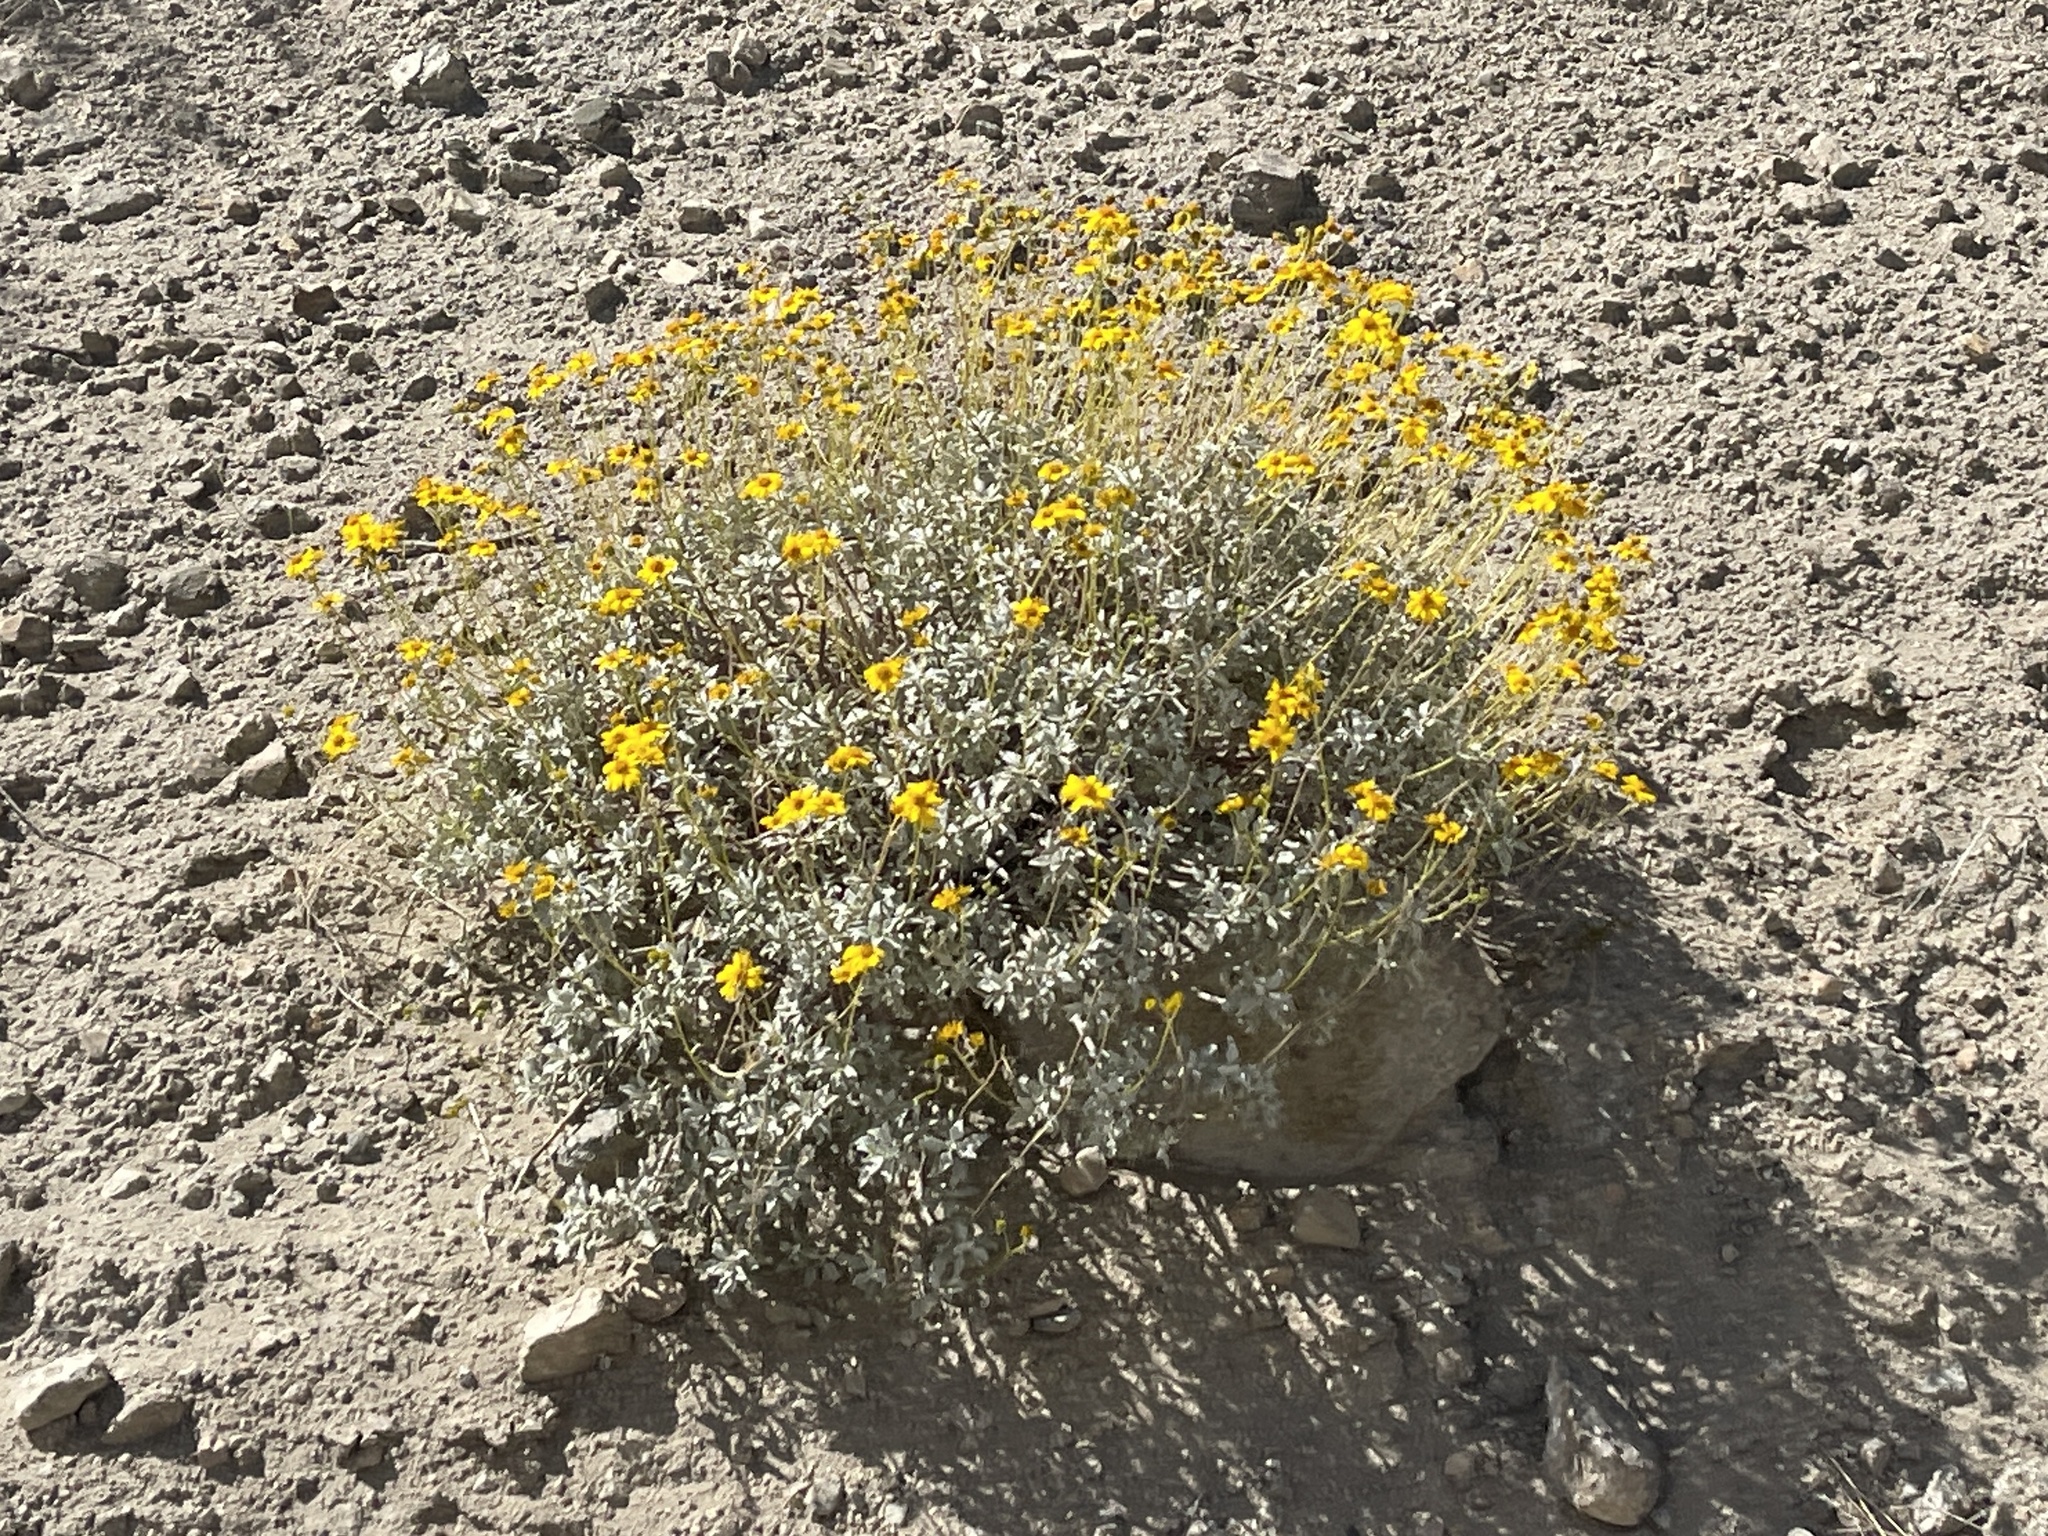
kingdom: Plantae
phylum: Tracheophyta
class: Magnoliopsida
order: Asterales
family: Asteraceae
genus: Encelia
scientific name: Encelia farinosa
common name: Brittlebush
